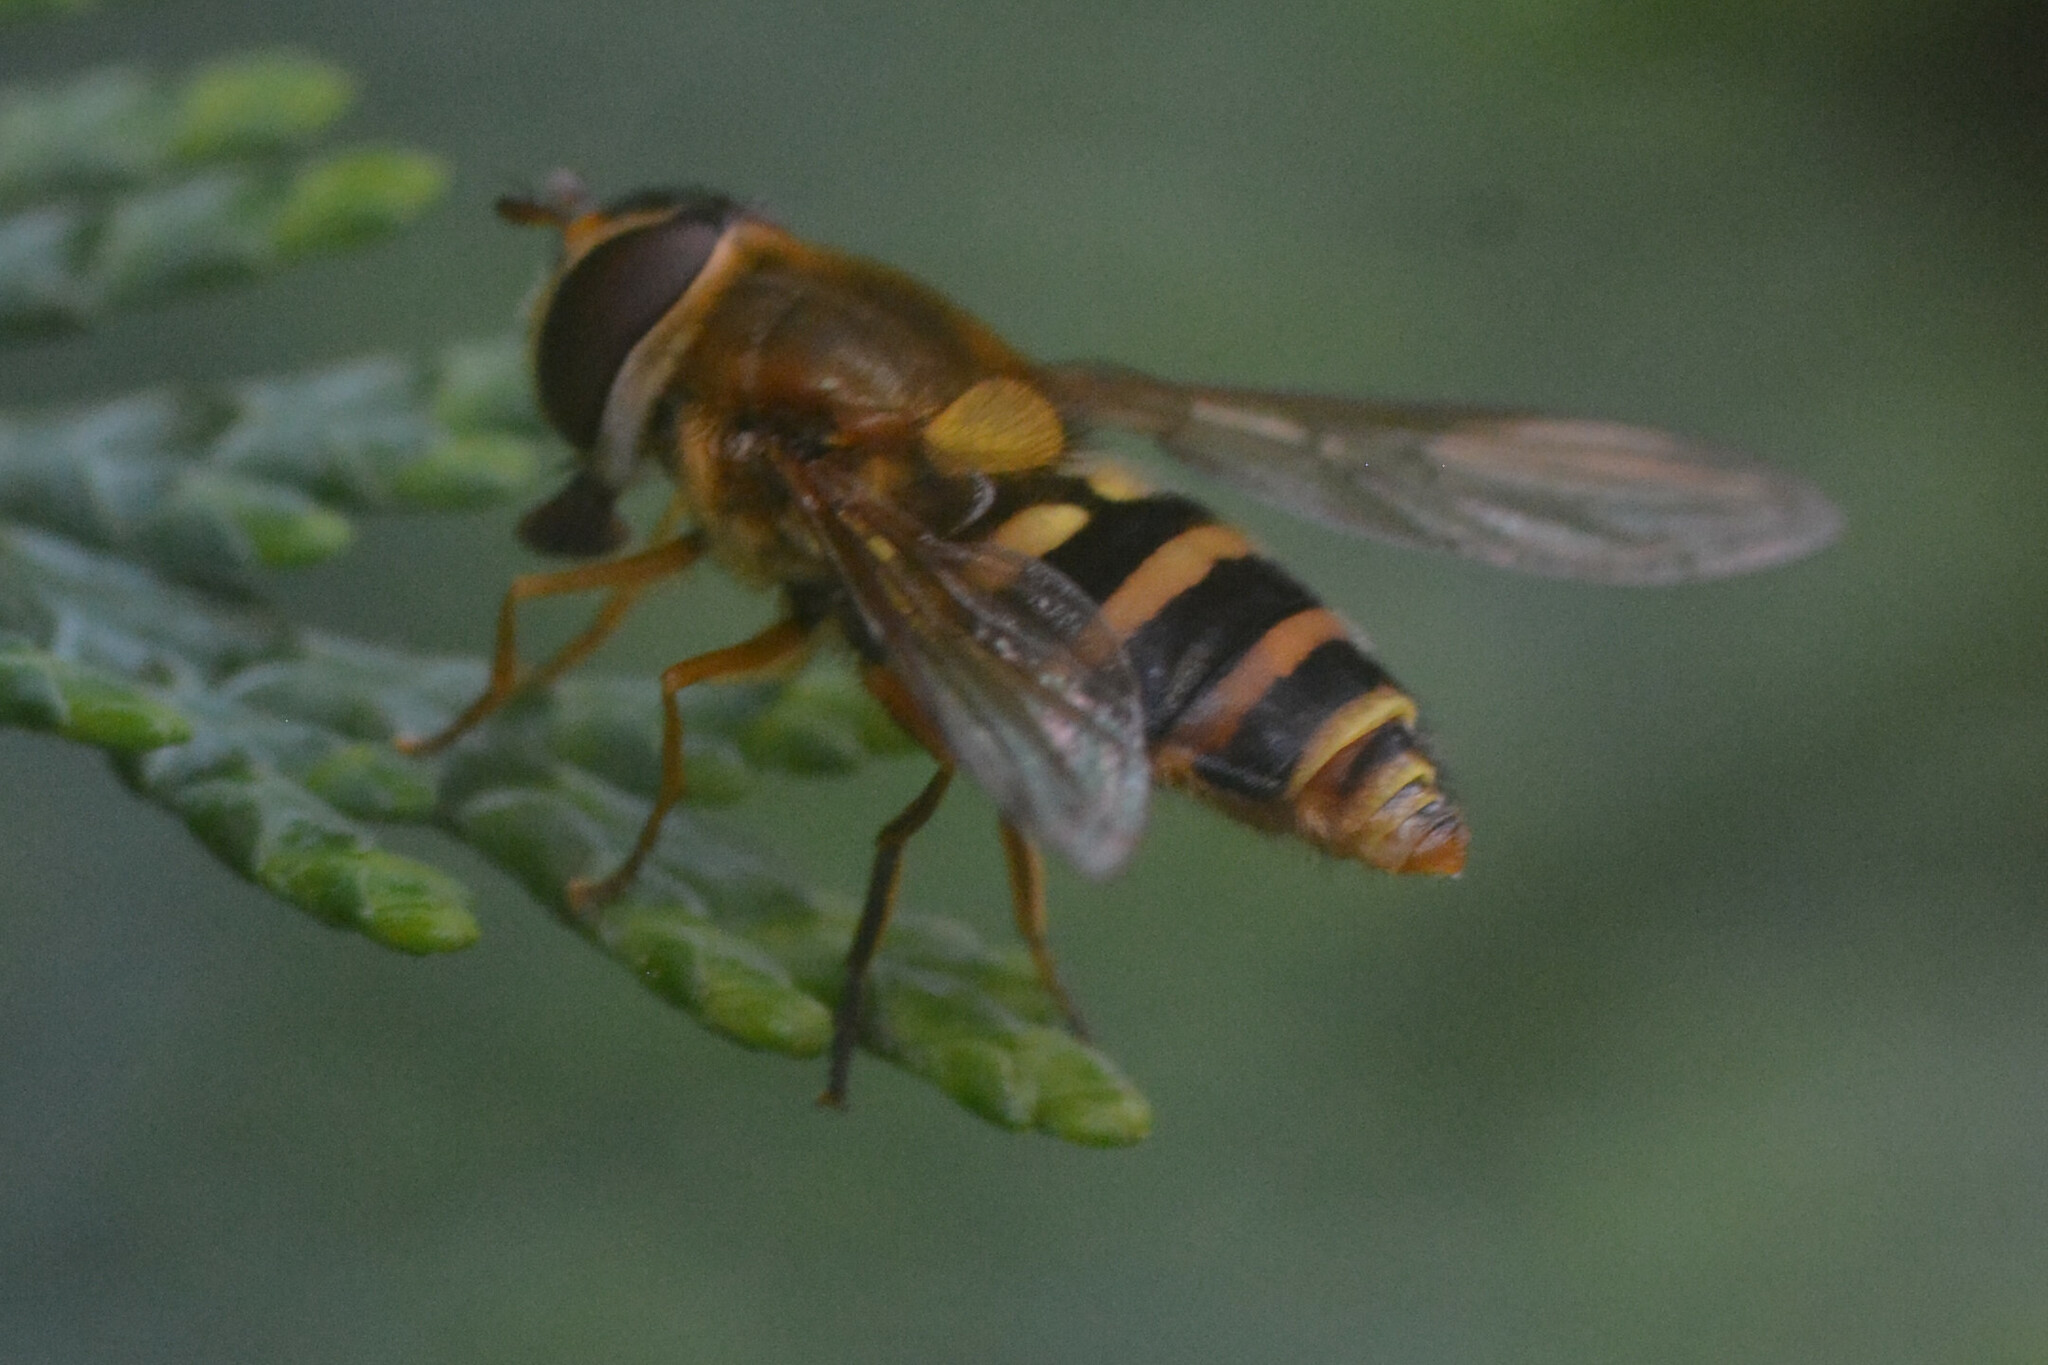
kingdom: Animalia
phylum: Arthropoda
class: Insecta
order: Diptera
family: Syrphidae
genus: Syrphus
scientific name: Syrphus ribesii
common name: Common flower fly
